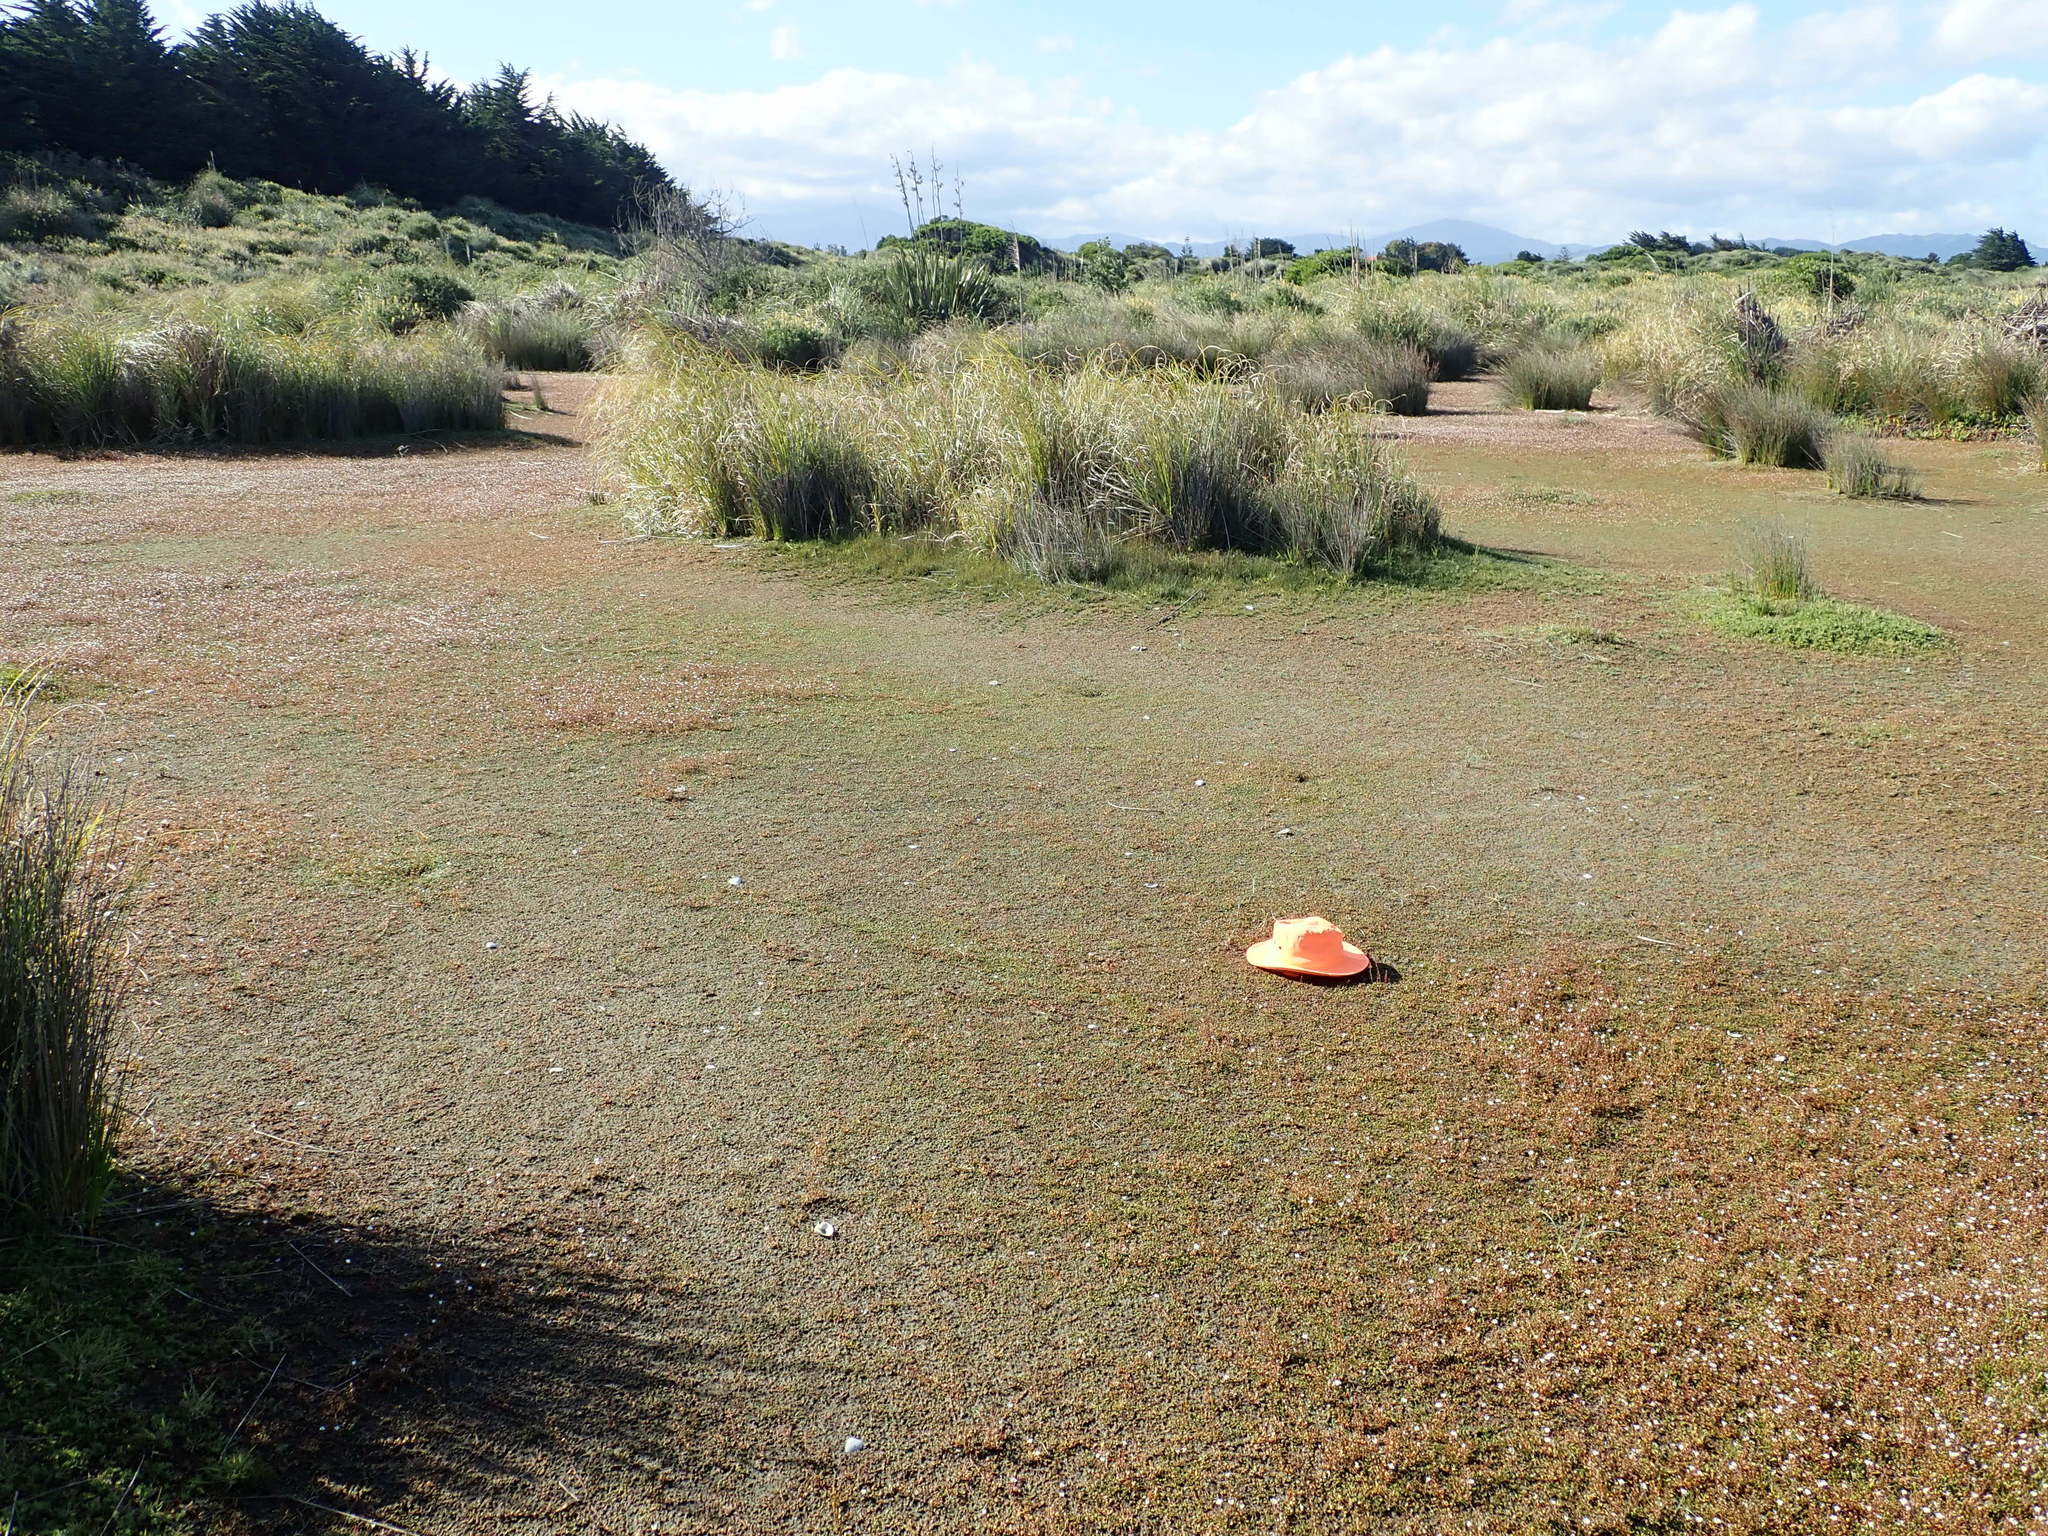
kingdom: Bacteria
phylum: Cyanobacteria
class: Cyanobacteriia
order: Cyanobacteriales
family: Nostocaceae
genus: Nostoc
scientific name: Nostoc commune
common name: Star jelly
